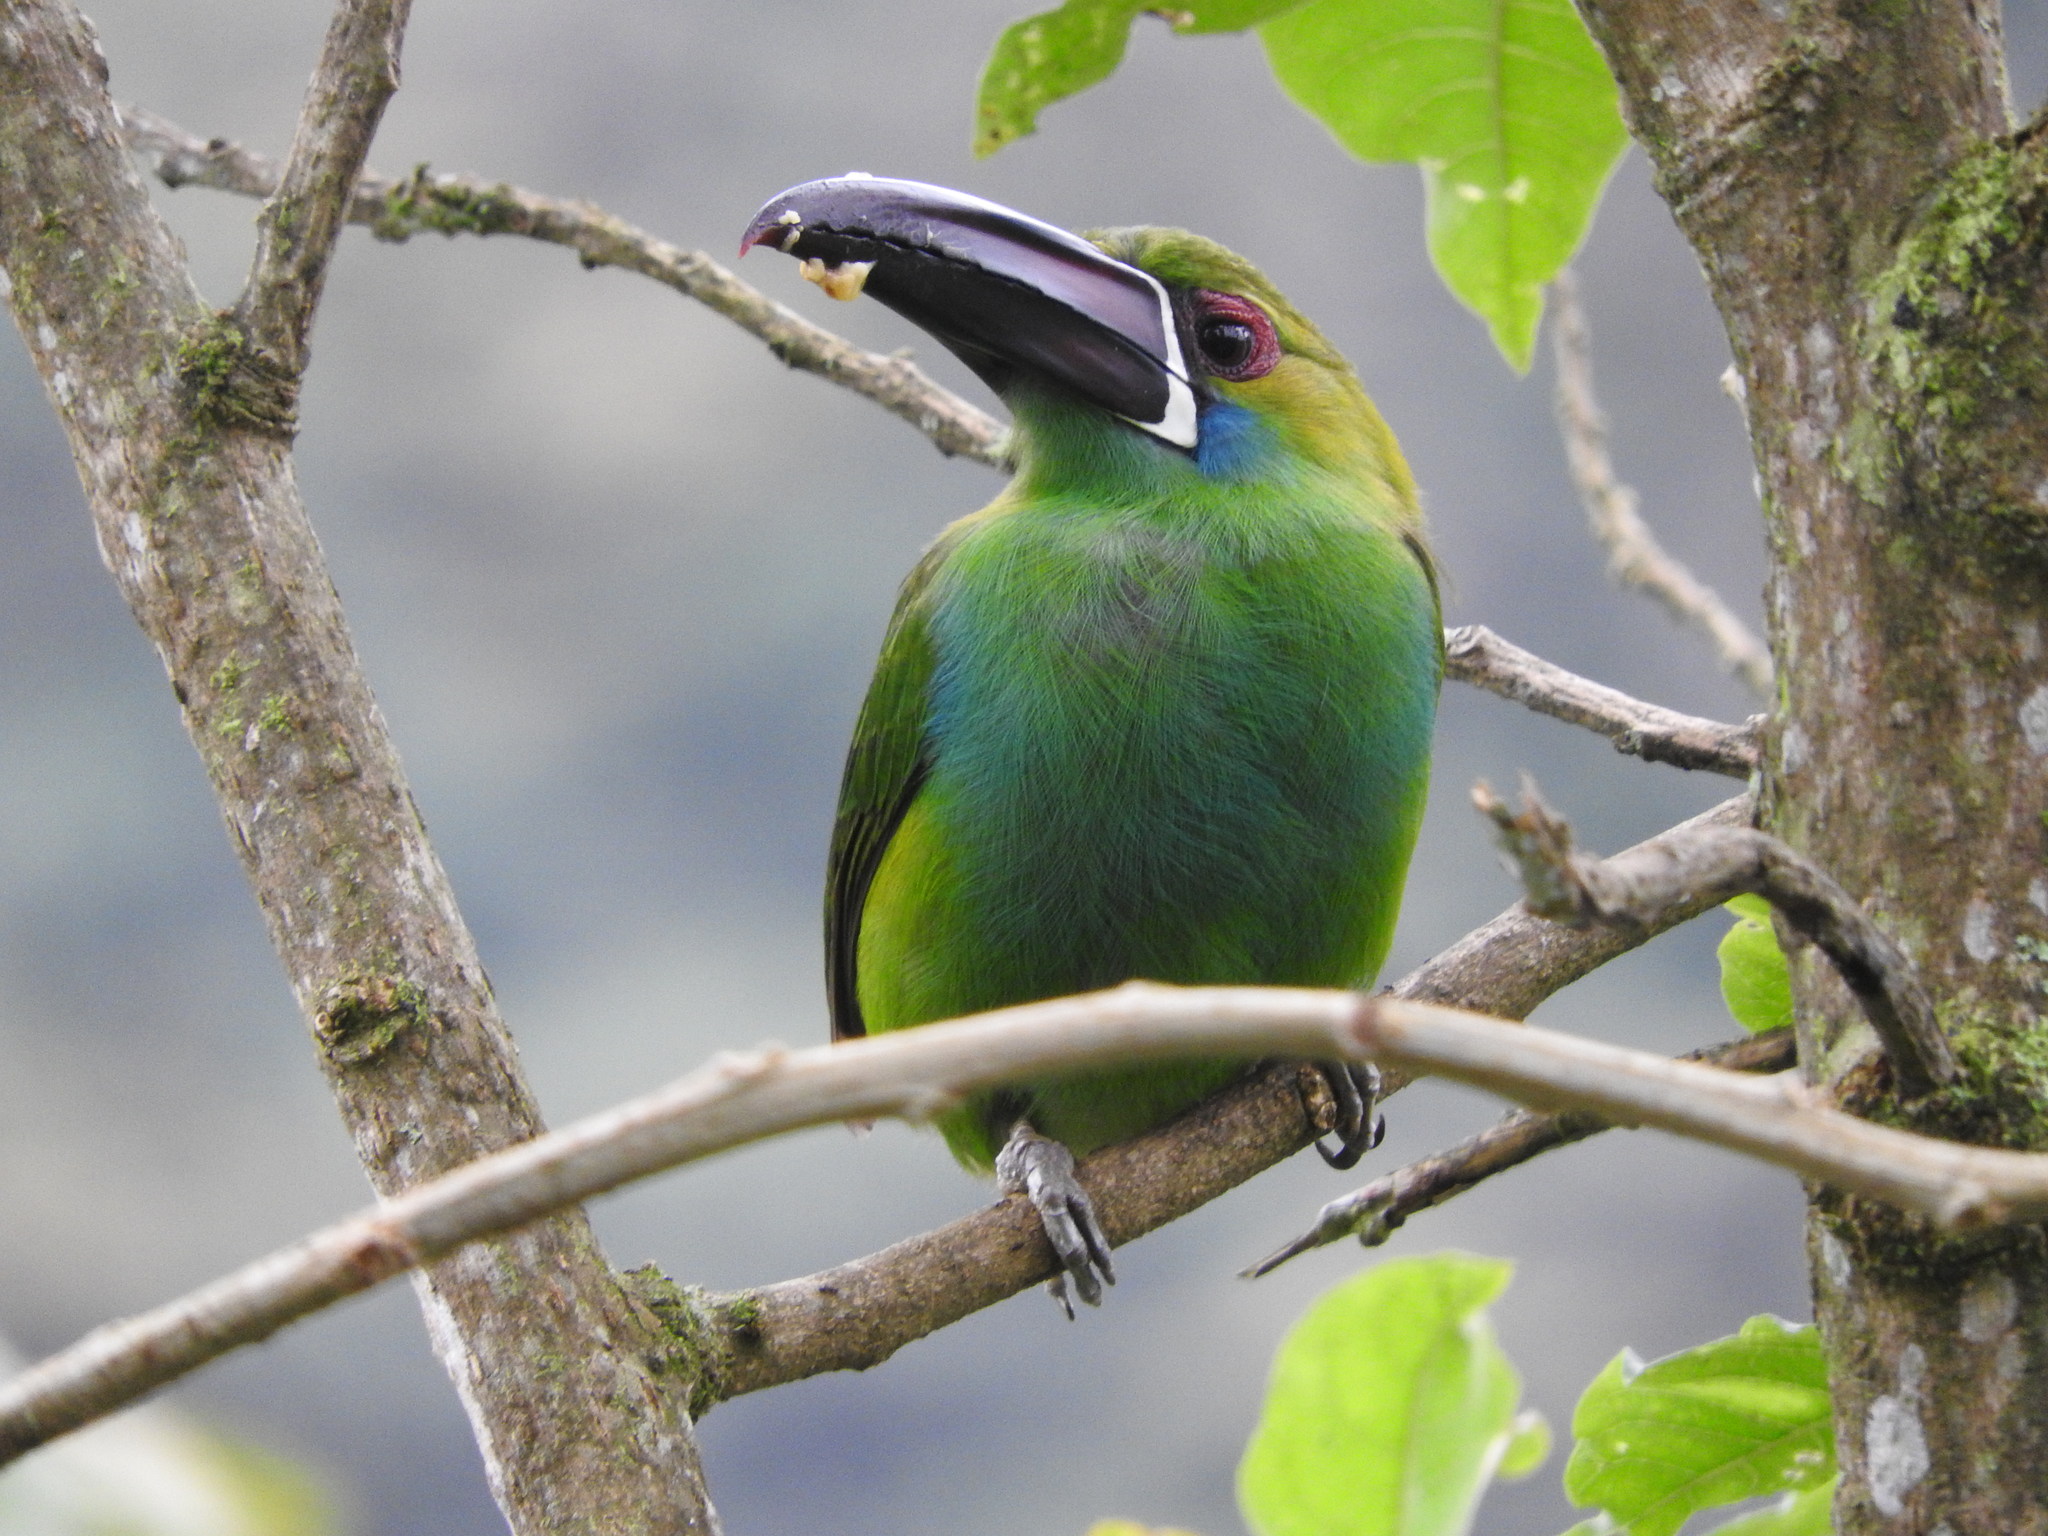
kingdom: Animalia
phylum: Chordata
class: Aves
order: Piciformes
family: Ramphastidae
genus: Aulacorhynchus
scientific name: Aulacorhynchus haematopygus
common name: Crimson-rumped toucanet
